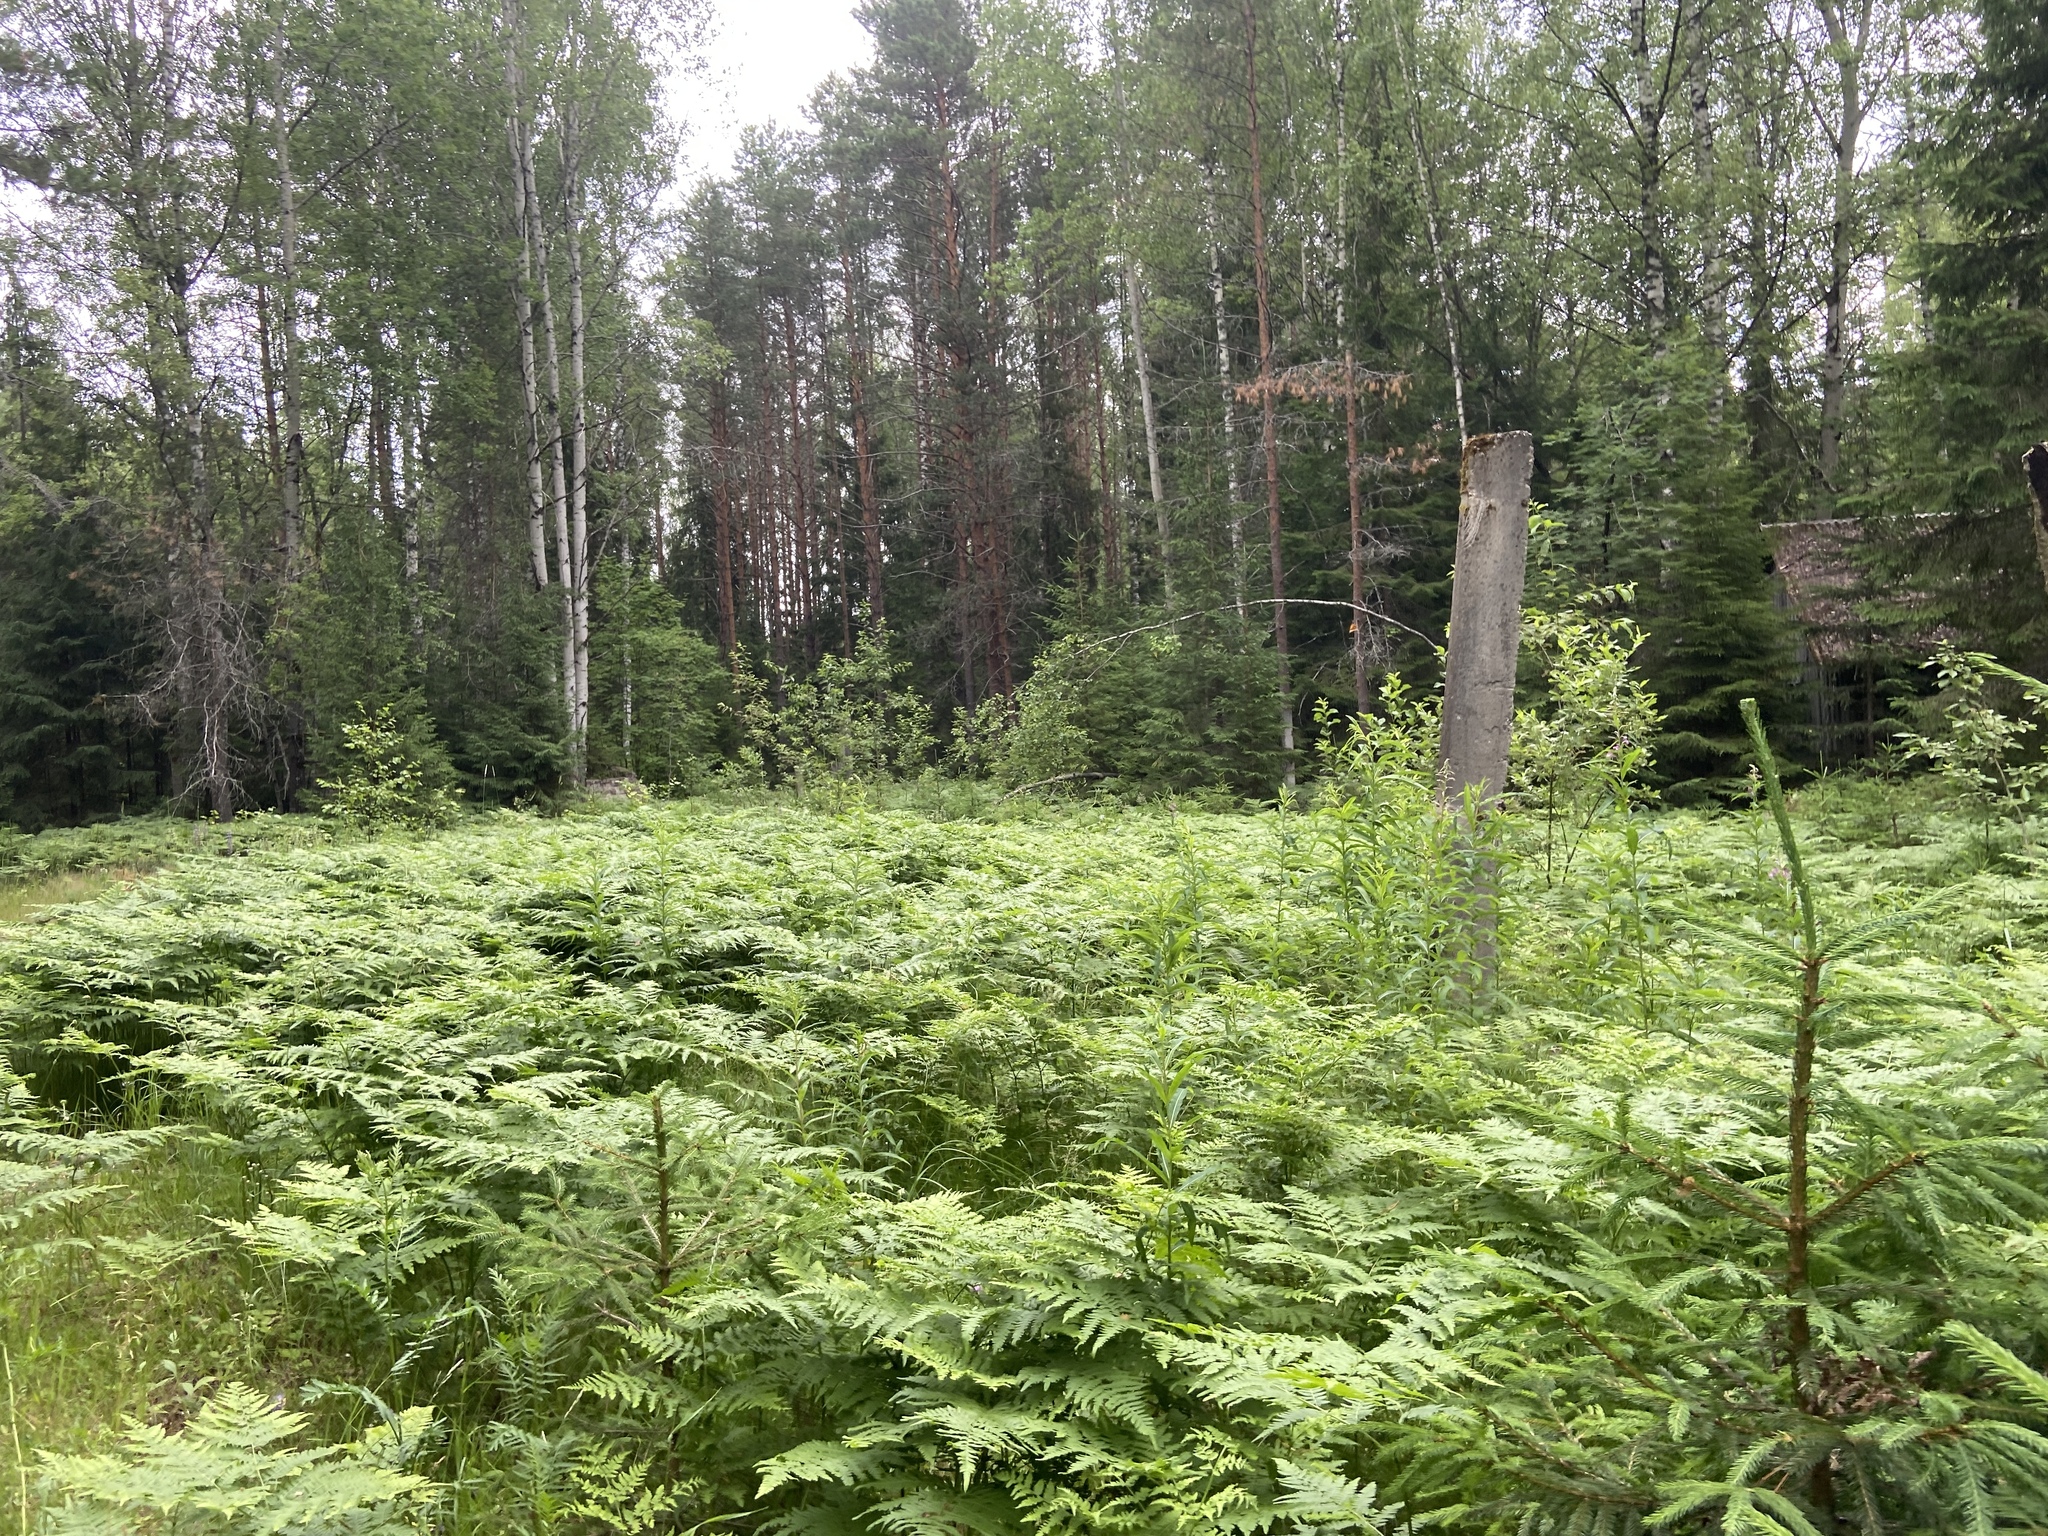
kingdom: Plantae
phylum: Tracheophyta
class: Polypodiopsida
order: Polypodiales
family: Dennstaedtiaceae
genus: Pteridium
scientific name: Pteridium aquilinum
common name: Bracken
